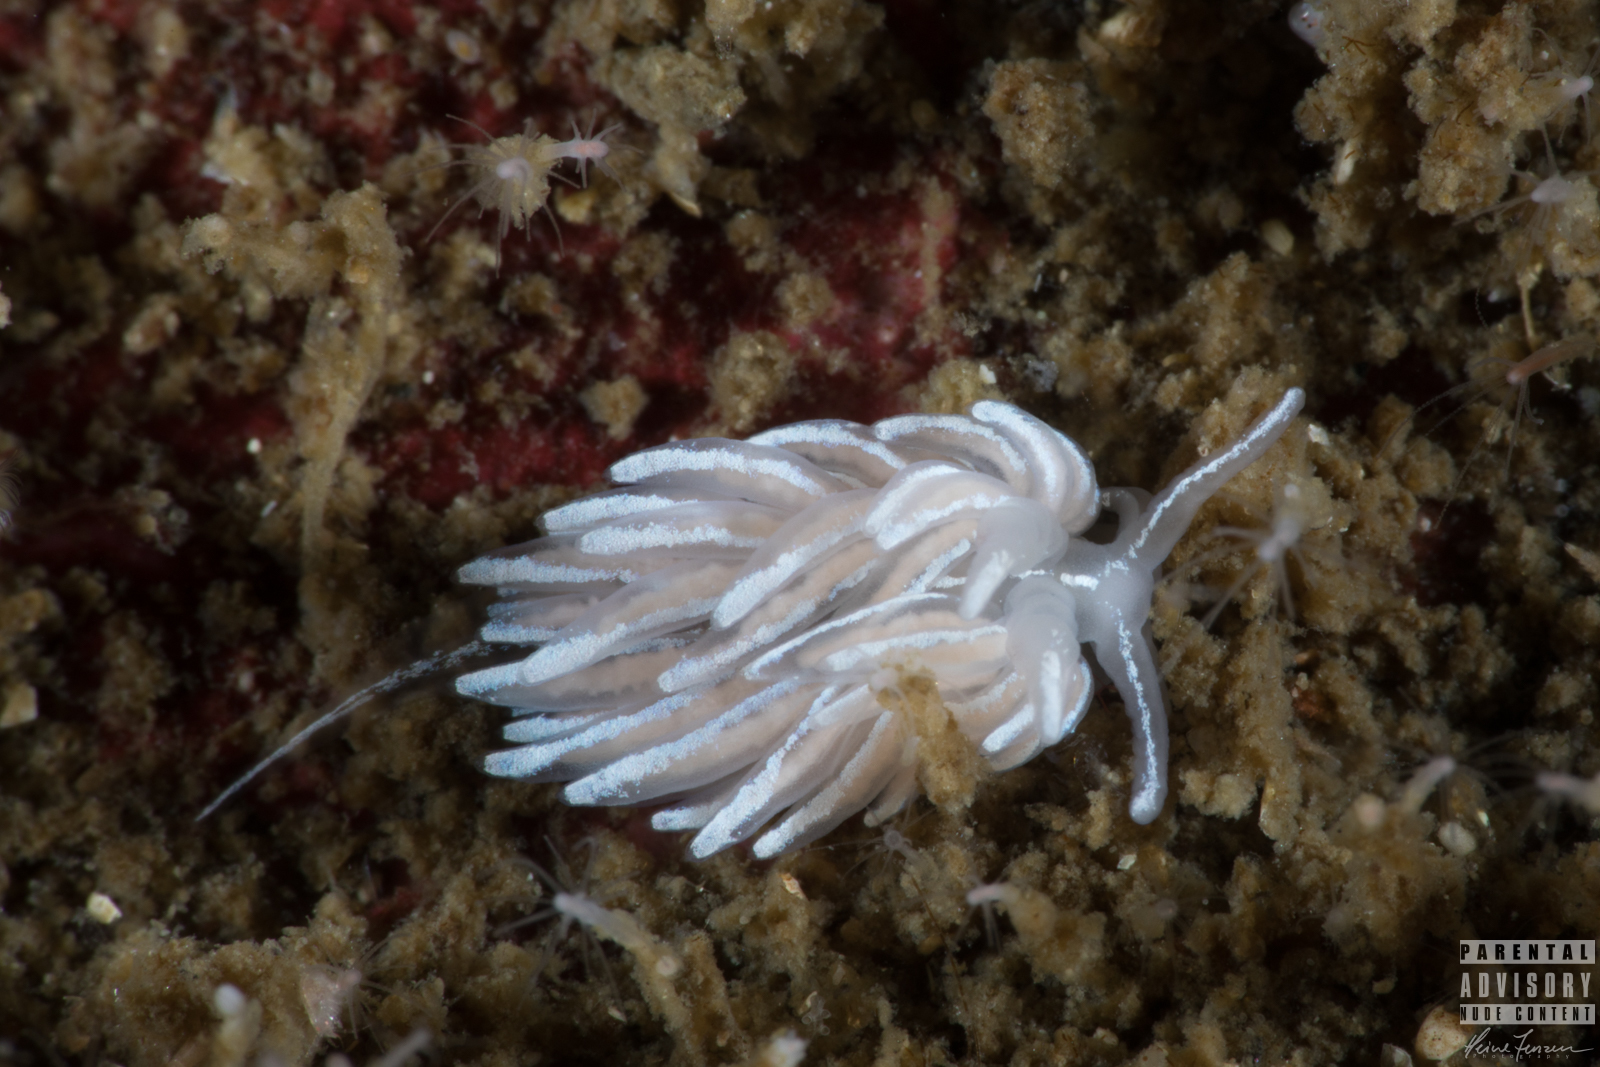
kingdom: Animalia
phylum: Mollusca
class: Gastropoda
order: Nudibranchia
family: Facelinidae
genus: Favorinus
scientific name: Favorinus blianus
